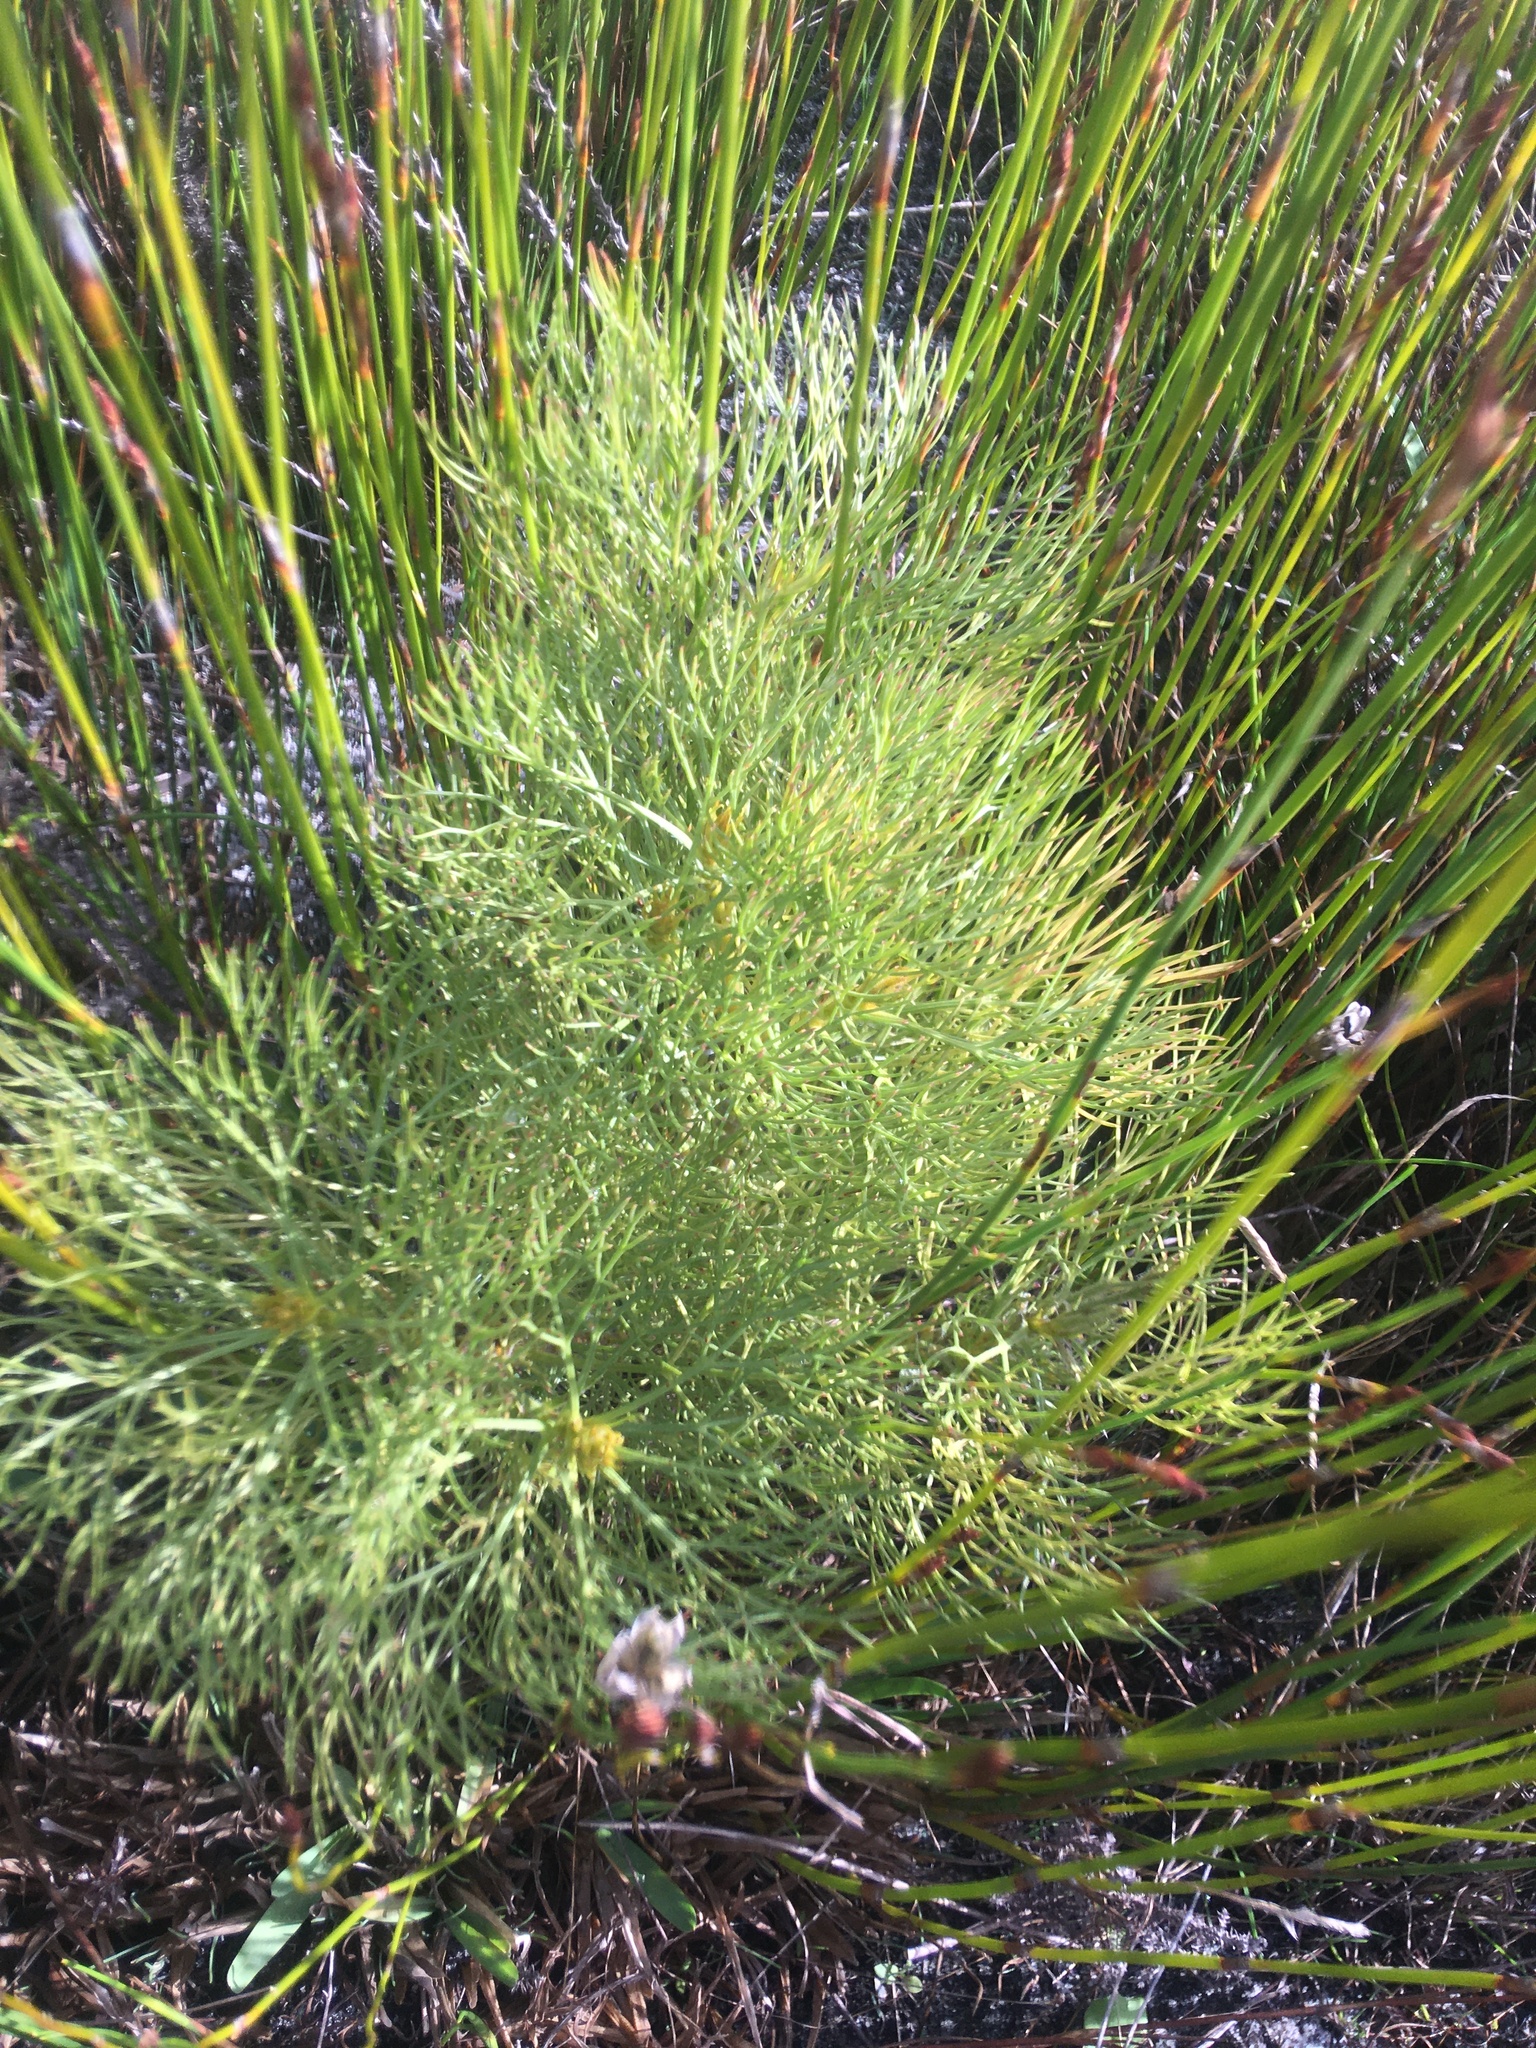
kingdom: Plantae
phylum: Tracheophyta
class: Magnoliopsida
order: Proteales
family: Proteaceae
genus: Serruria
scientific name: Serruria glomerata
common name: Cluster spiderhead
